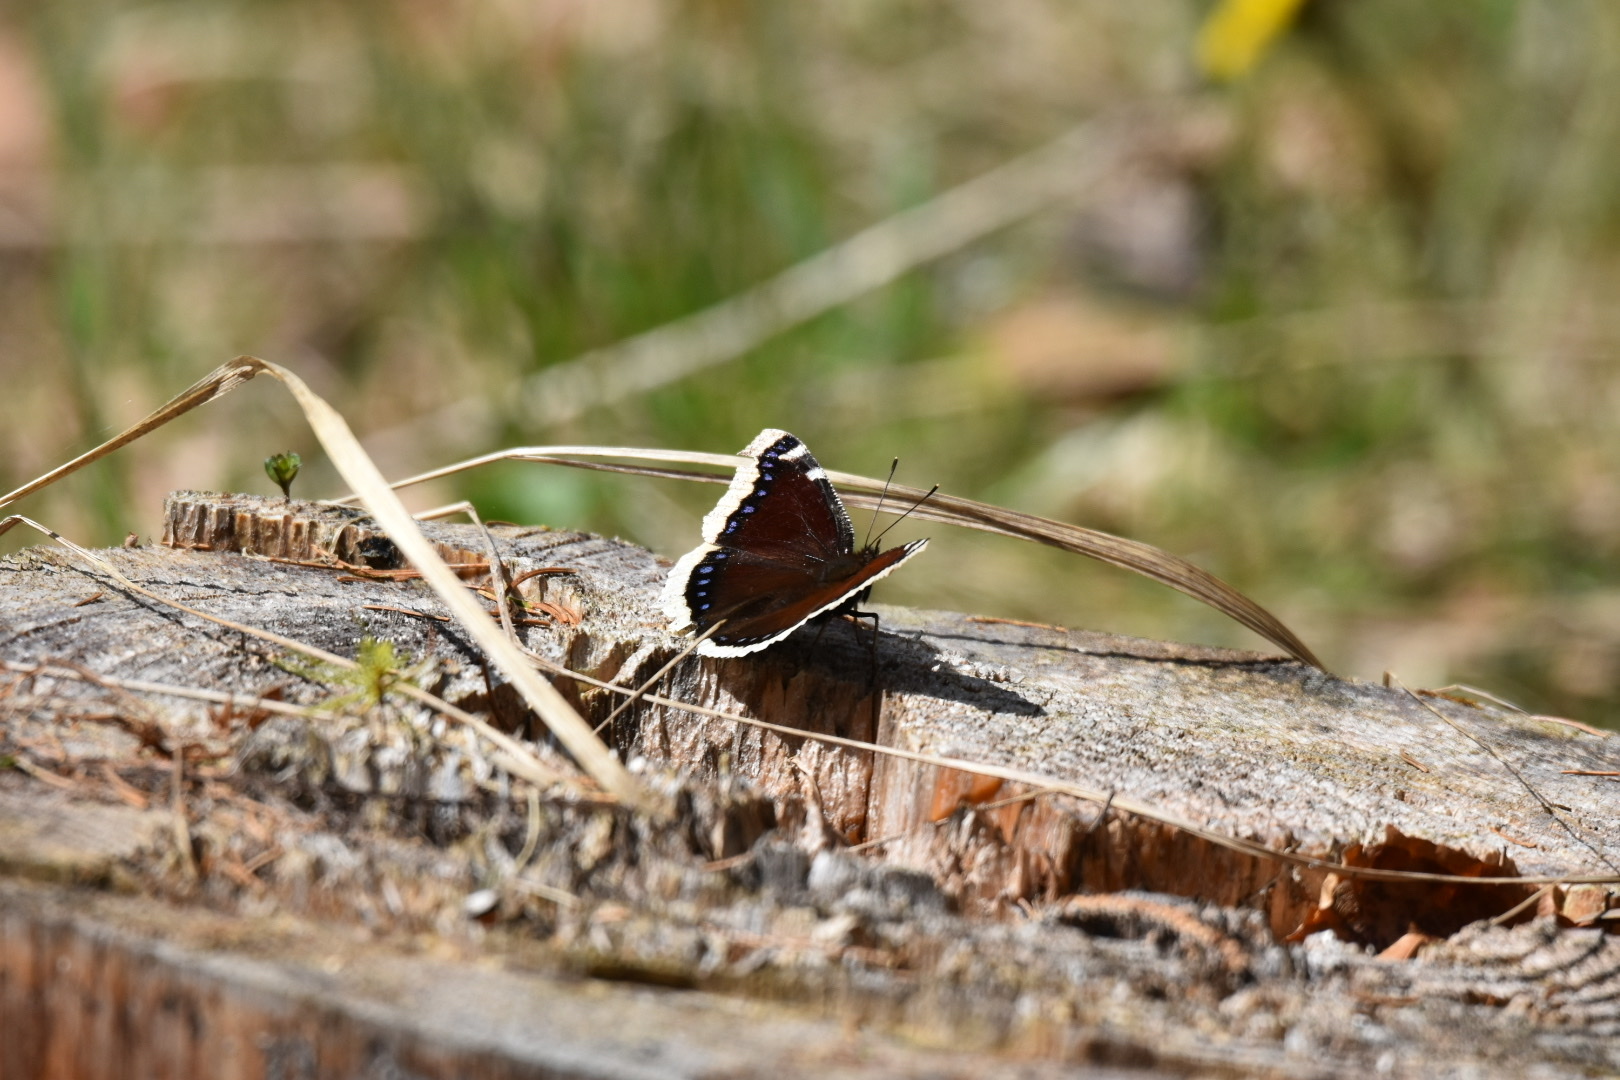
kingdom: Animalia
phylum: Arthropoda
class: Insecta
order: Lepidoptera
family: Nymphalidae
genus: Nymphalis
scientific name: Nymphalis antiopa
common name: Camberwell beauty
